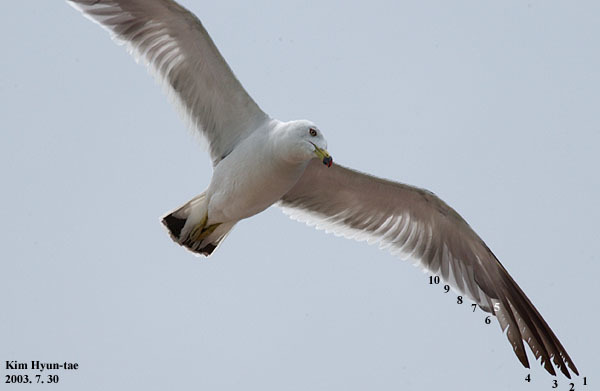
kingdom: Animalia
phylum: Chordata
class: Aves
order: Charadriiformes
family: Laridae
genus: Larus
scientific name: Larus crassirostris
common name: Black-tailed gull
